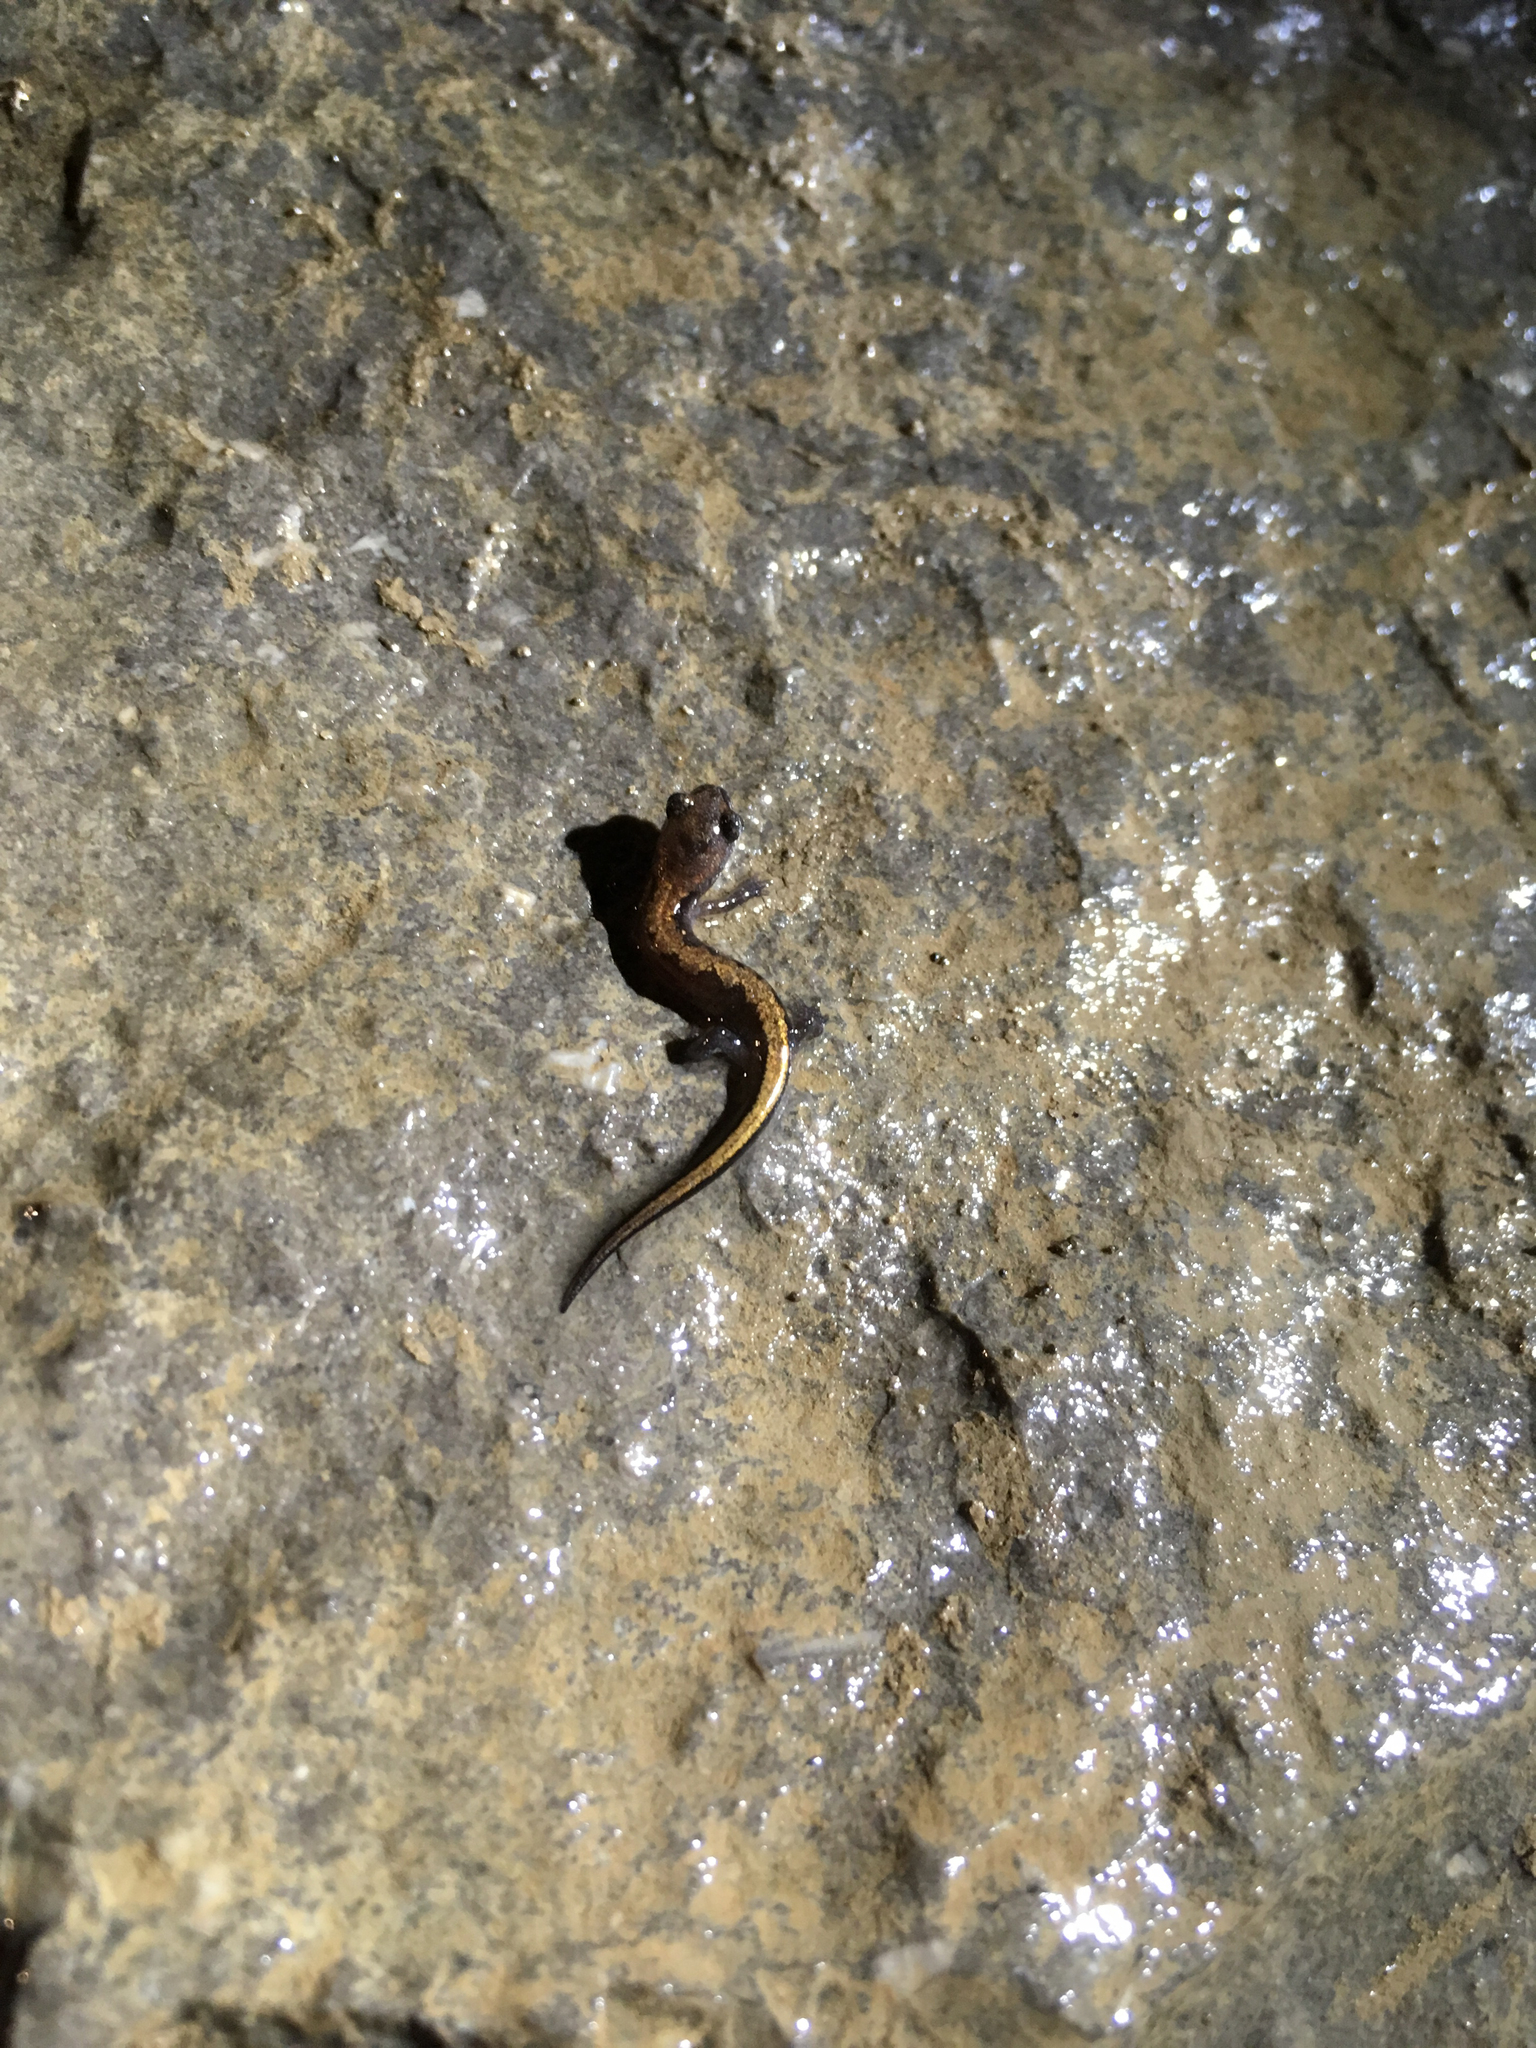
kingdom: Animalia
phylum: Chordata
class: Amphibia
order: Caudata
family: Plethodontidae
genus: Plethodon
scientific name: Plethodon ventralis
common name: Southern zigzag salamander
